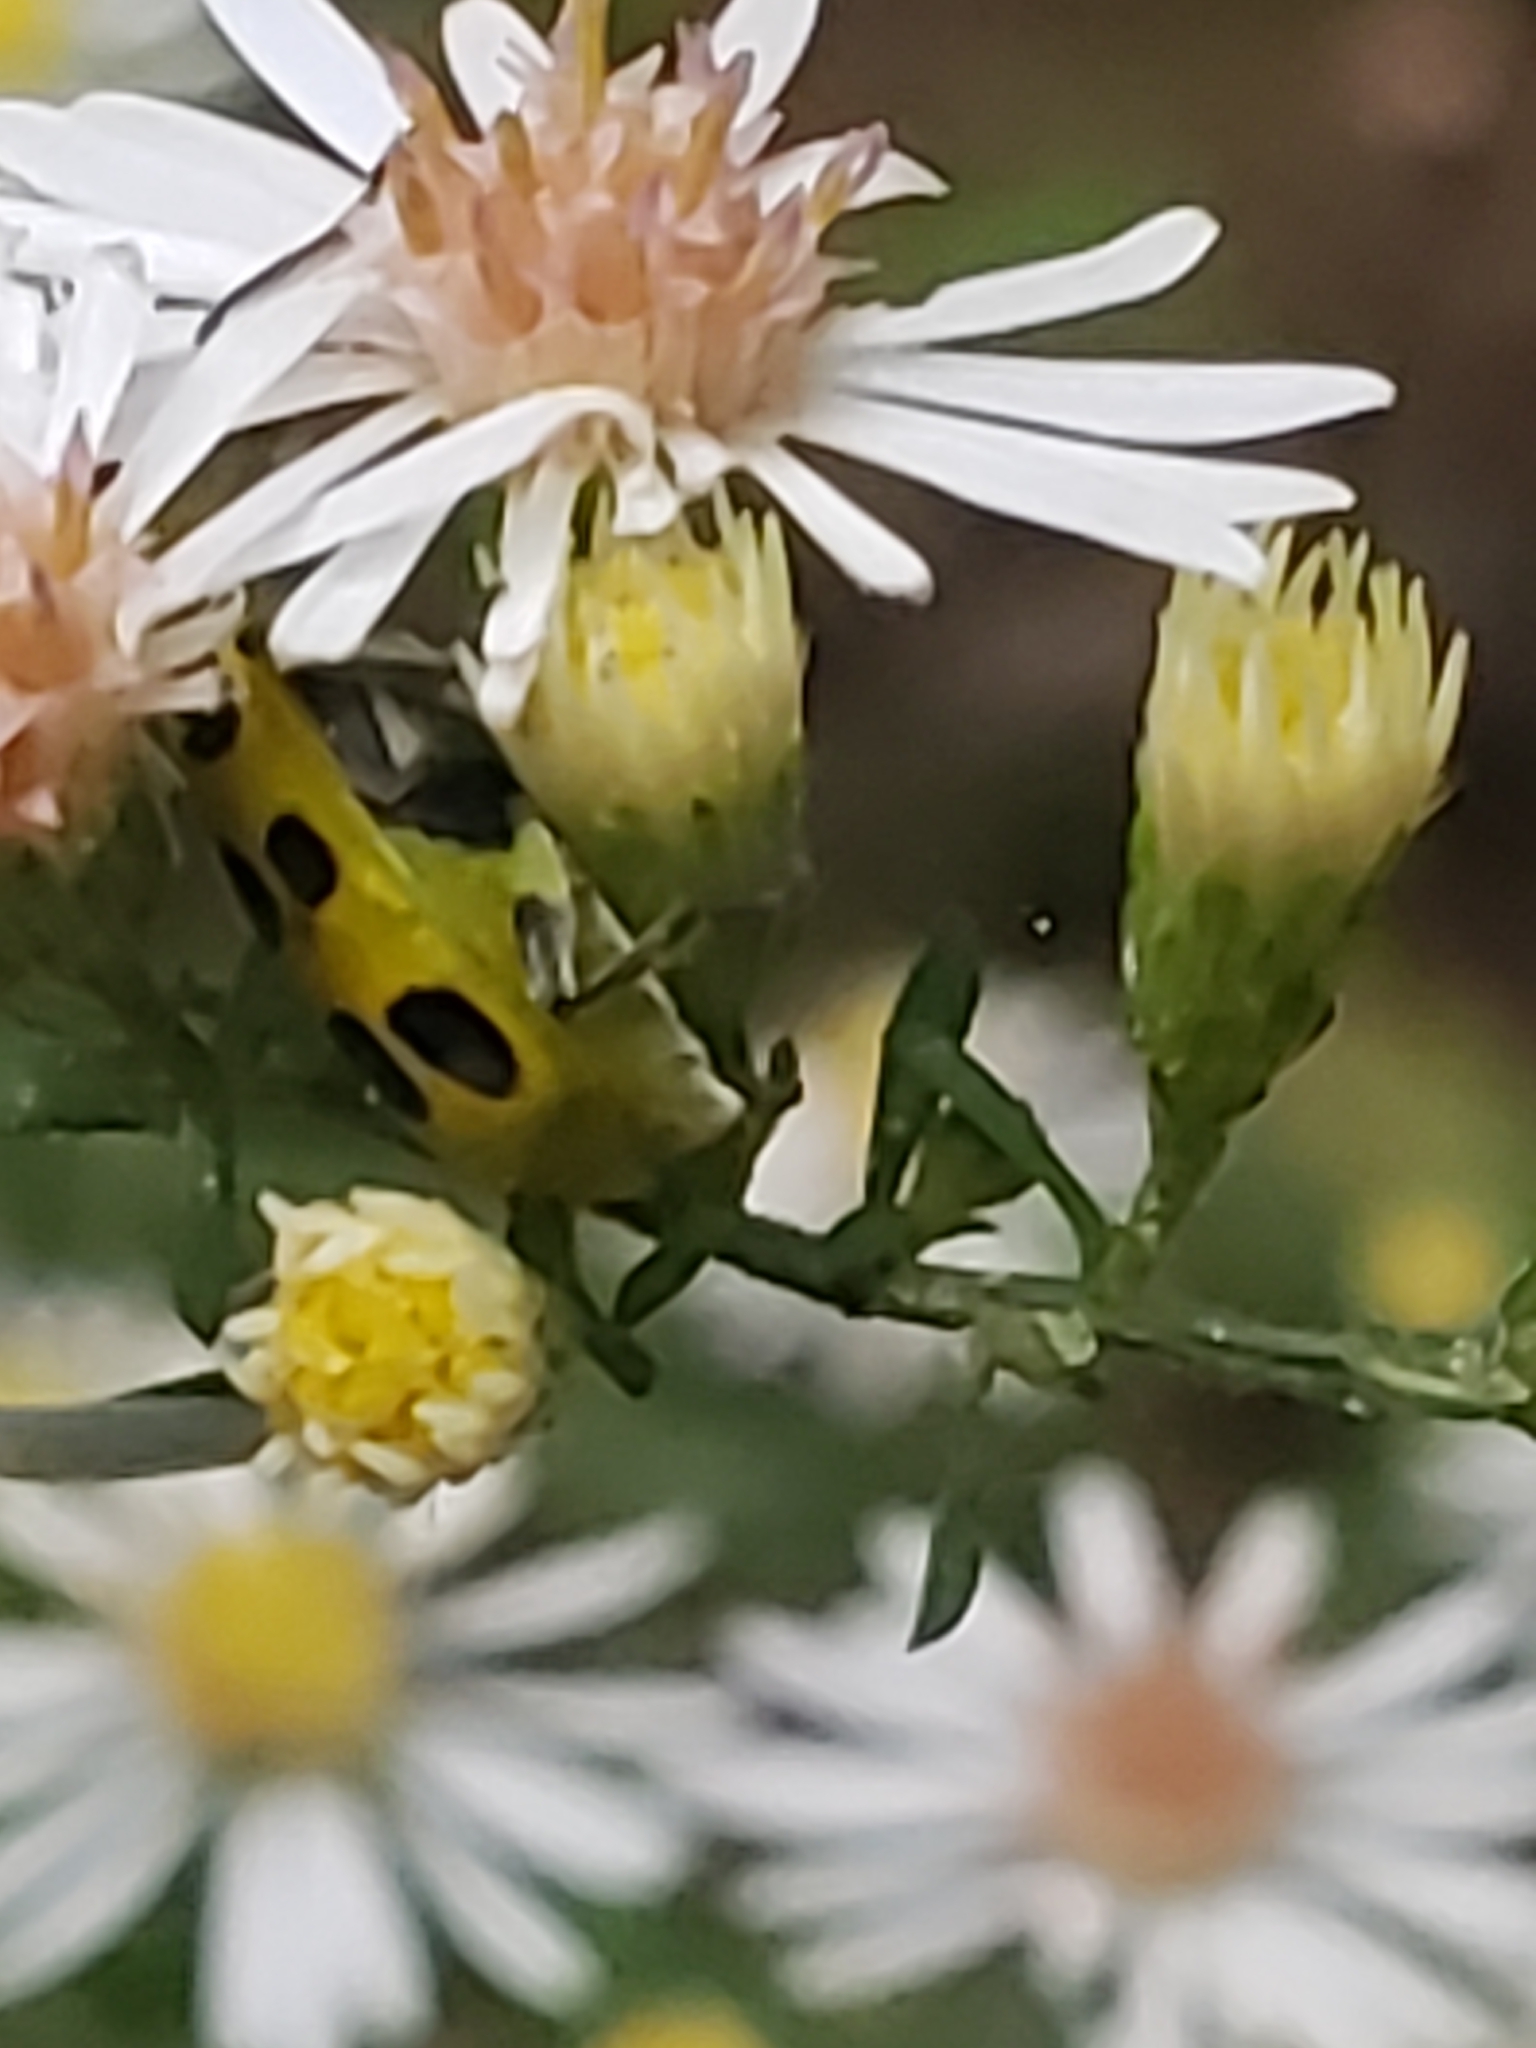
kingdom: Animalia
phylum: Arthropoda
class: Insecta
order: Coleoptera
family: Chrysomelidae
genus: Diabrotica
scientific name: Diabrotica undecimpunctata
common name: Spotted cucumber beetle
